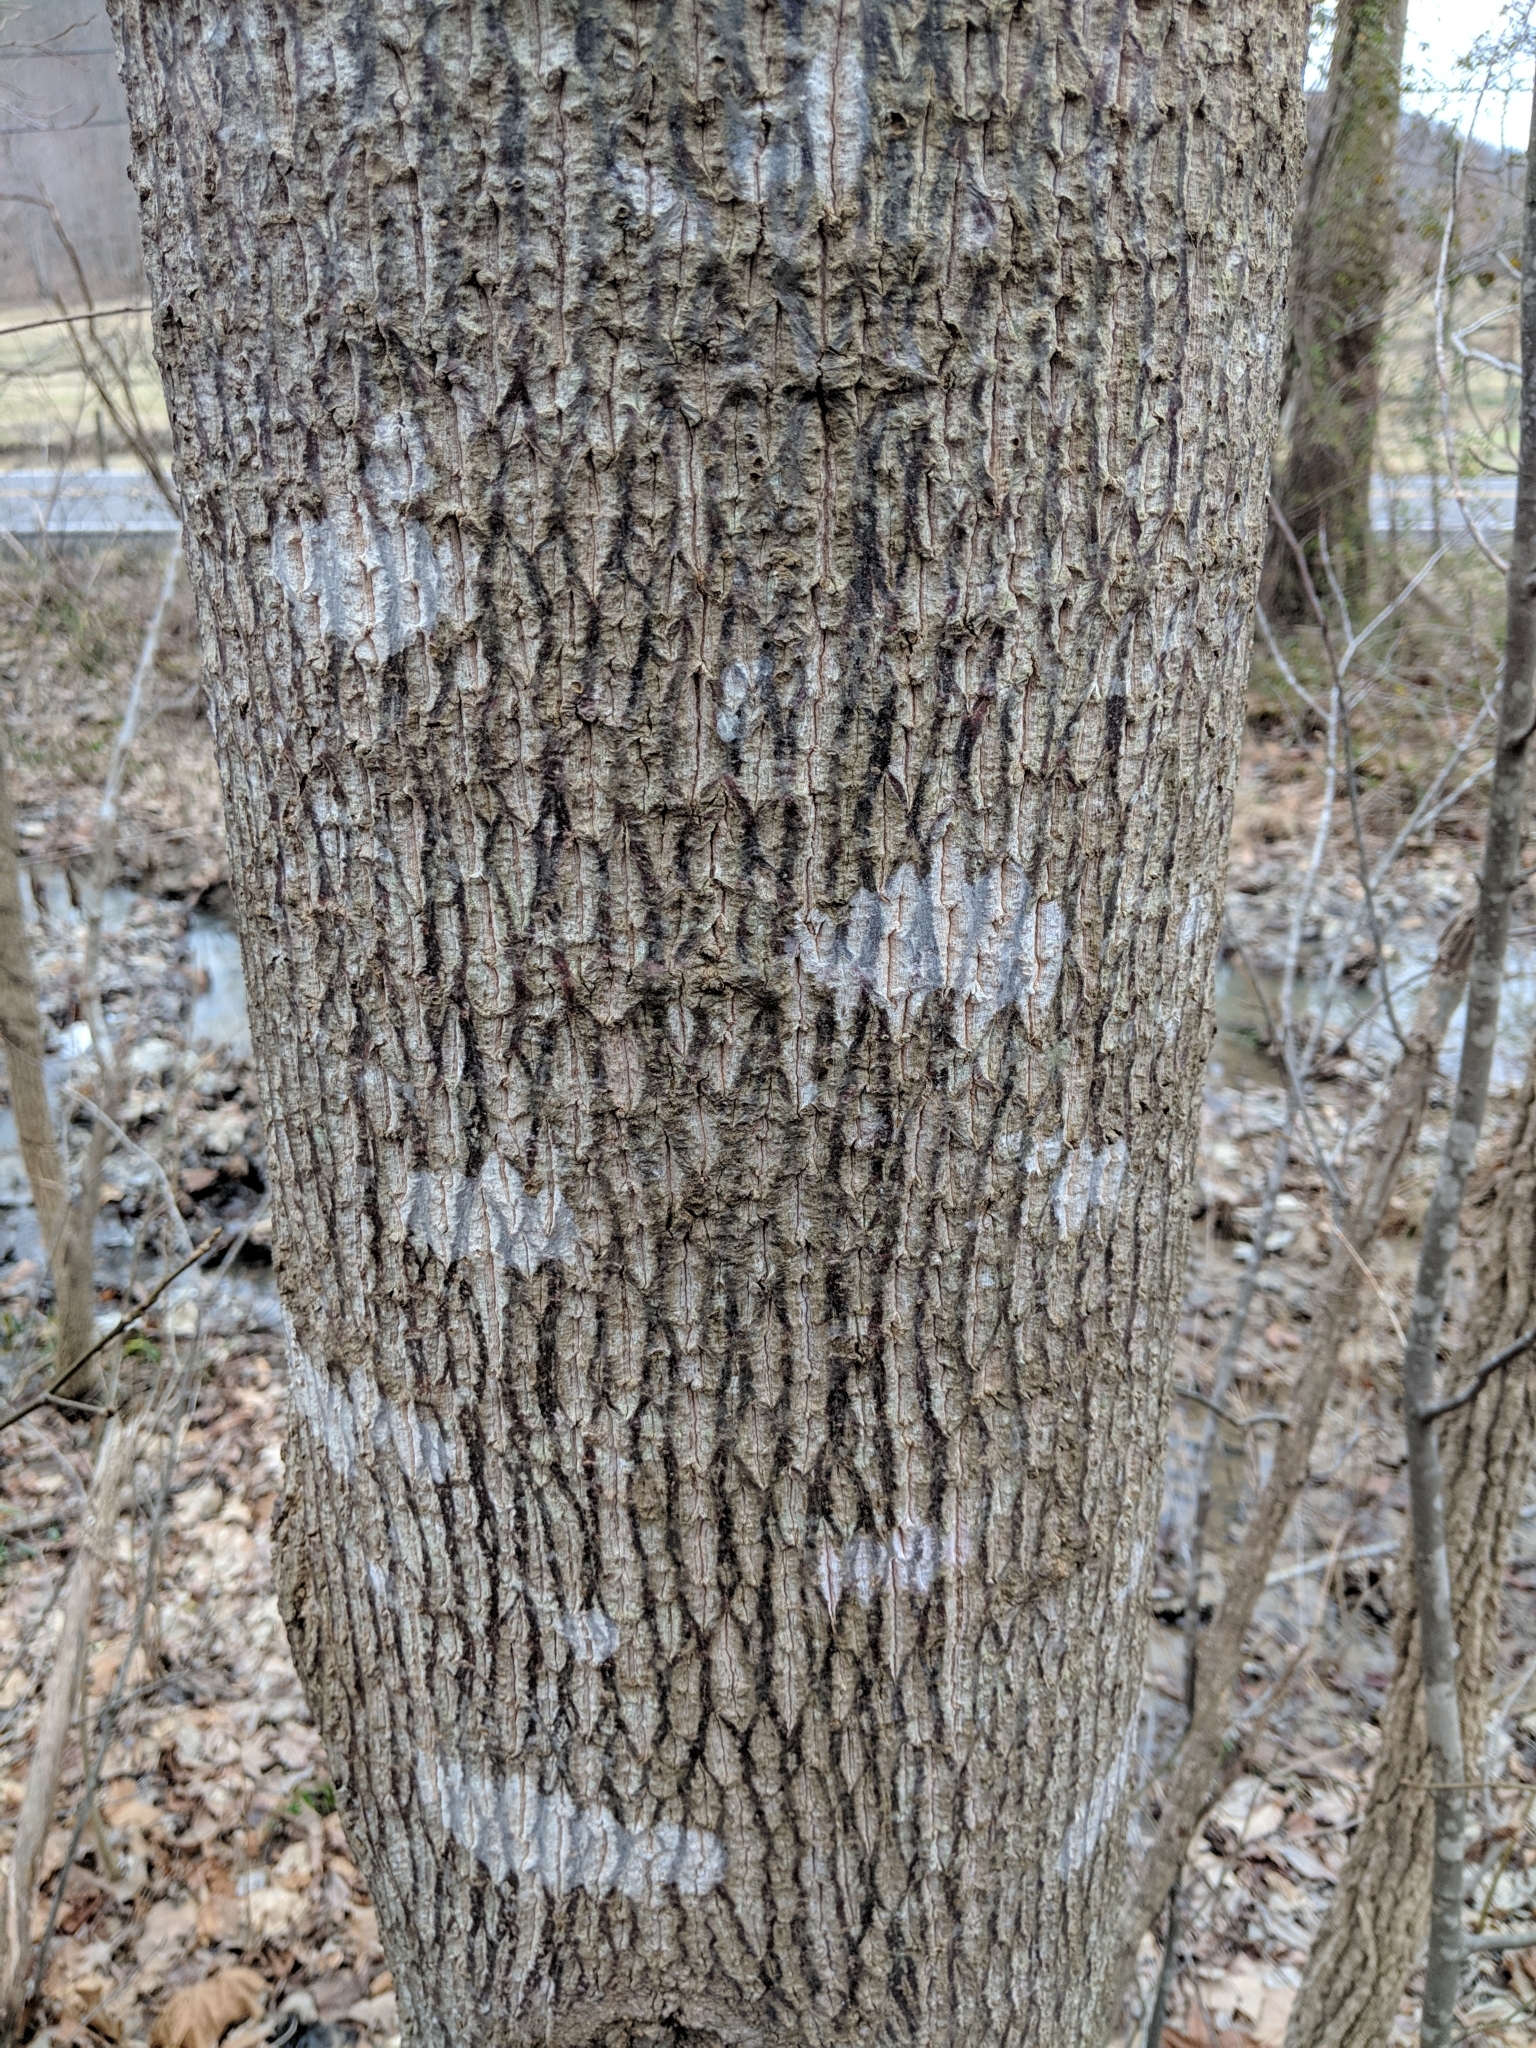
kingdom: Plantae
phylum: Tracheophyta
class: Magnoliopsida
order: Magnoliales
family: Magnoliaceae
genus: Liriodendron
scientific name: Liriodendron tulipifera
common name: Tulip tree
